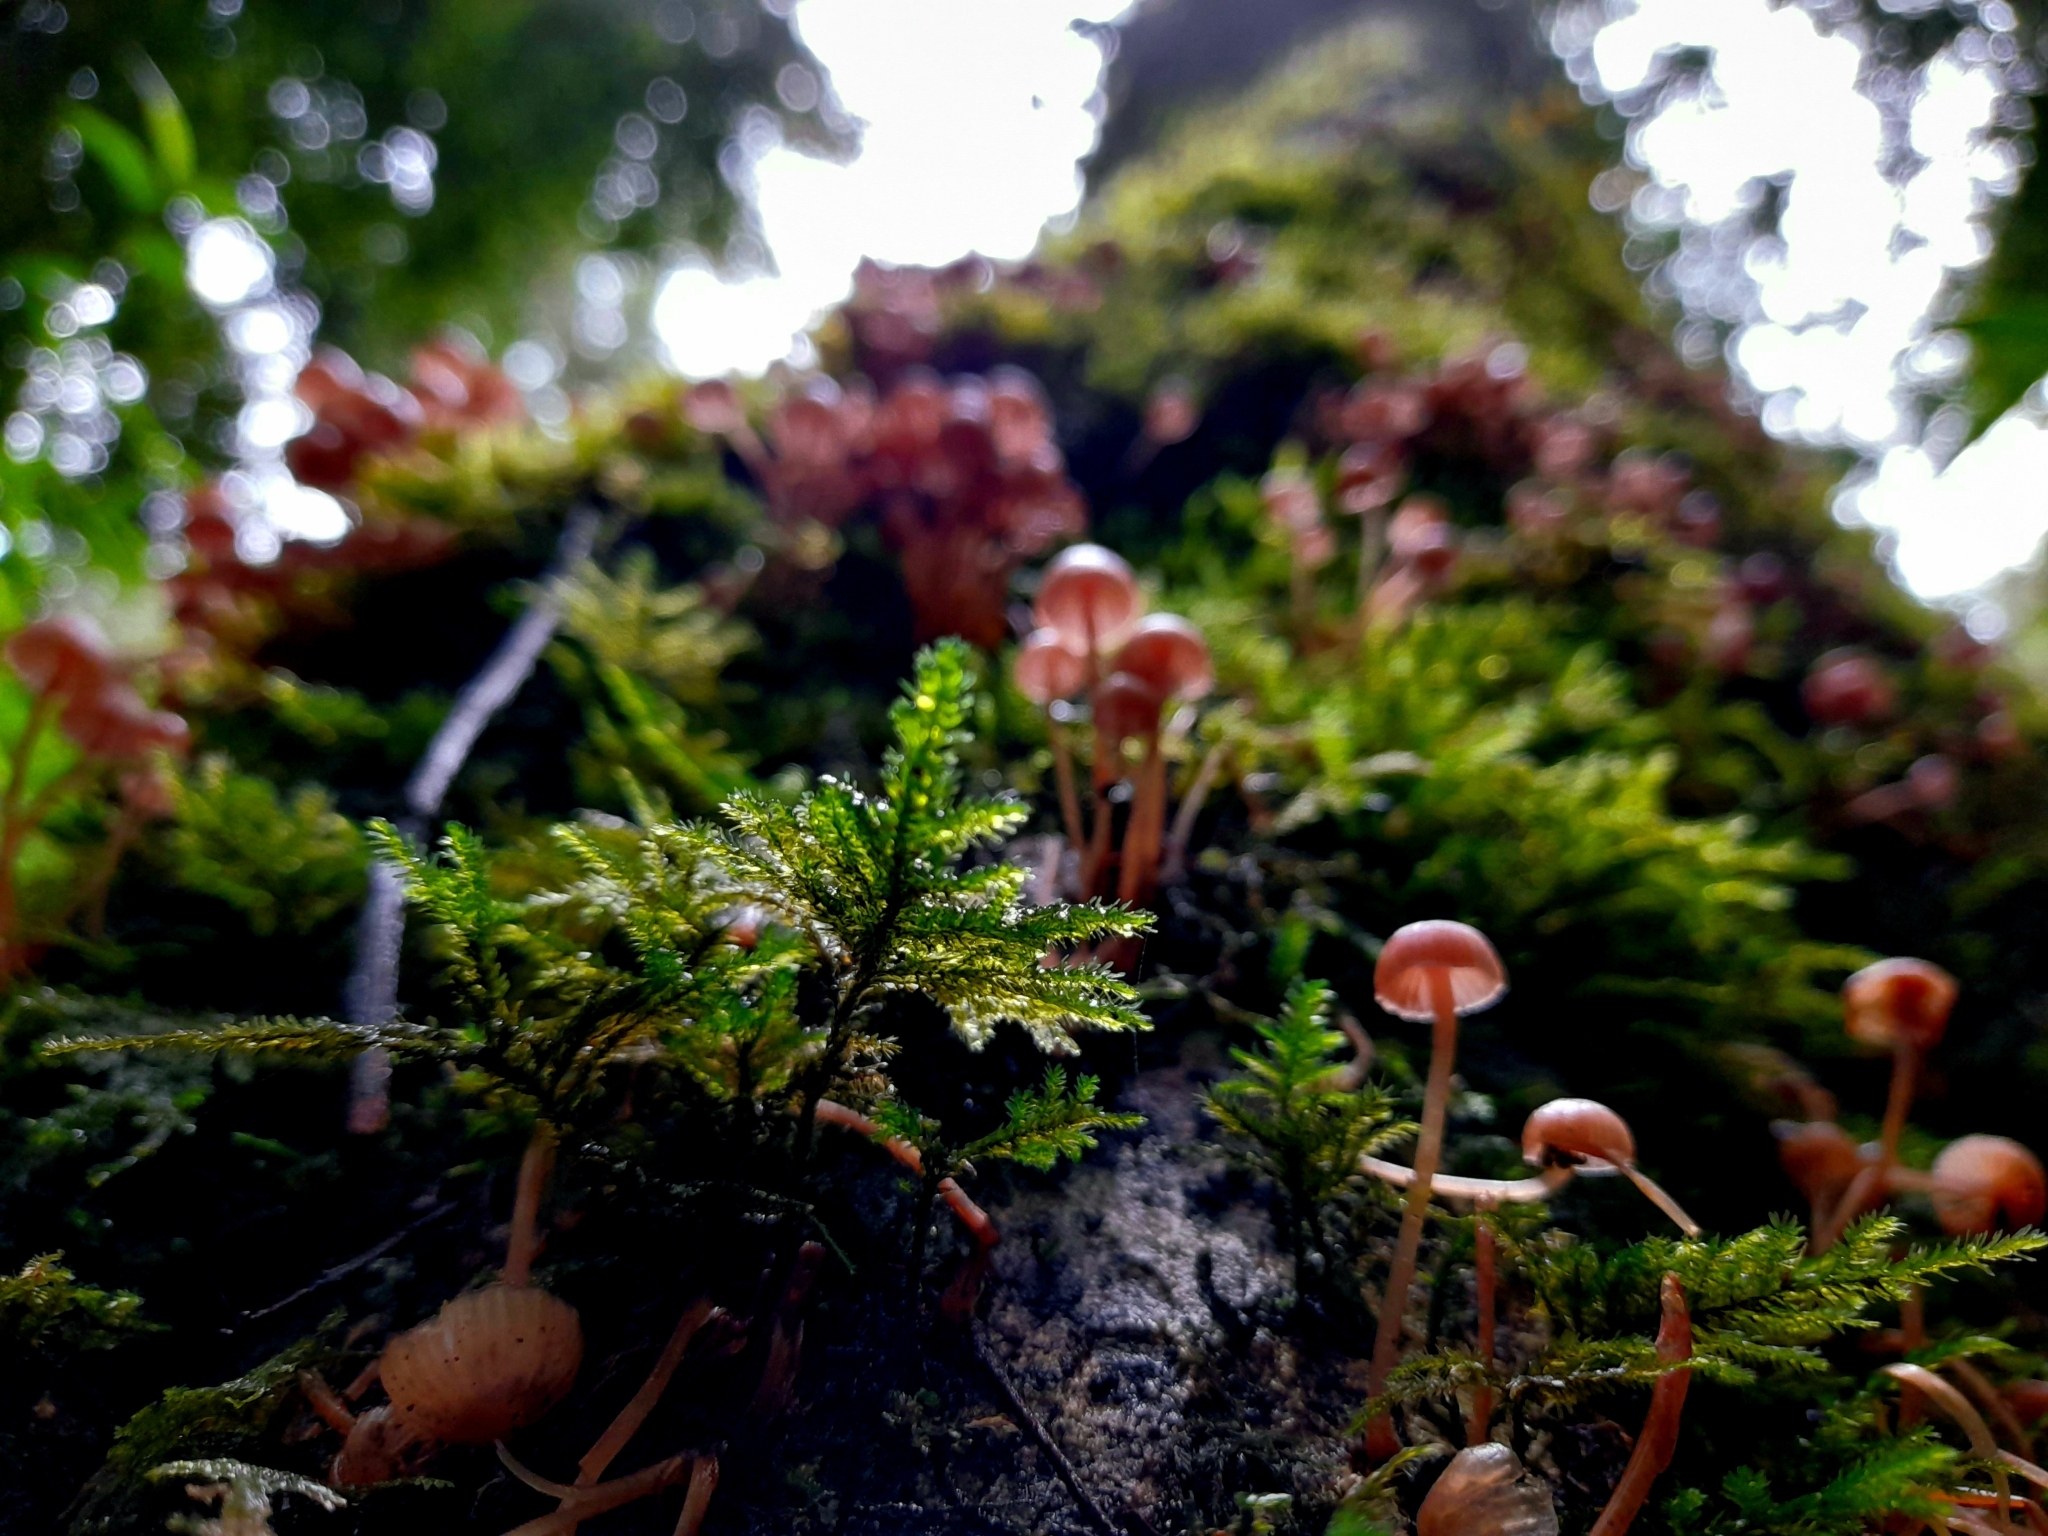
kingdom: Fungi
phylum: Basidiomycota
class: Agaricomycetes
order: Agaricales
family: Mycenaceae
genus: Mycena
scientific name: Mycena haematopus
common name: Burgundydrop bonnet
